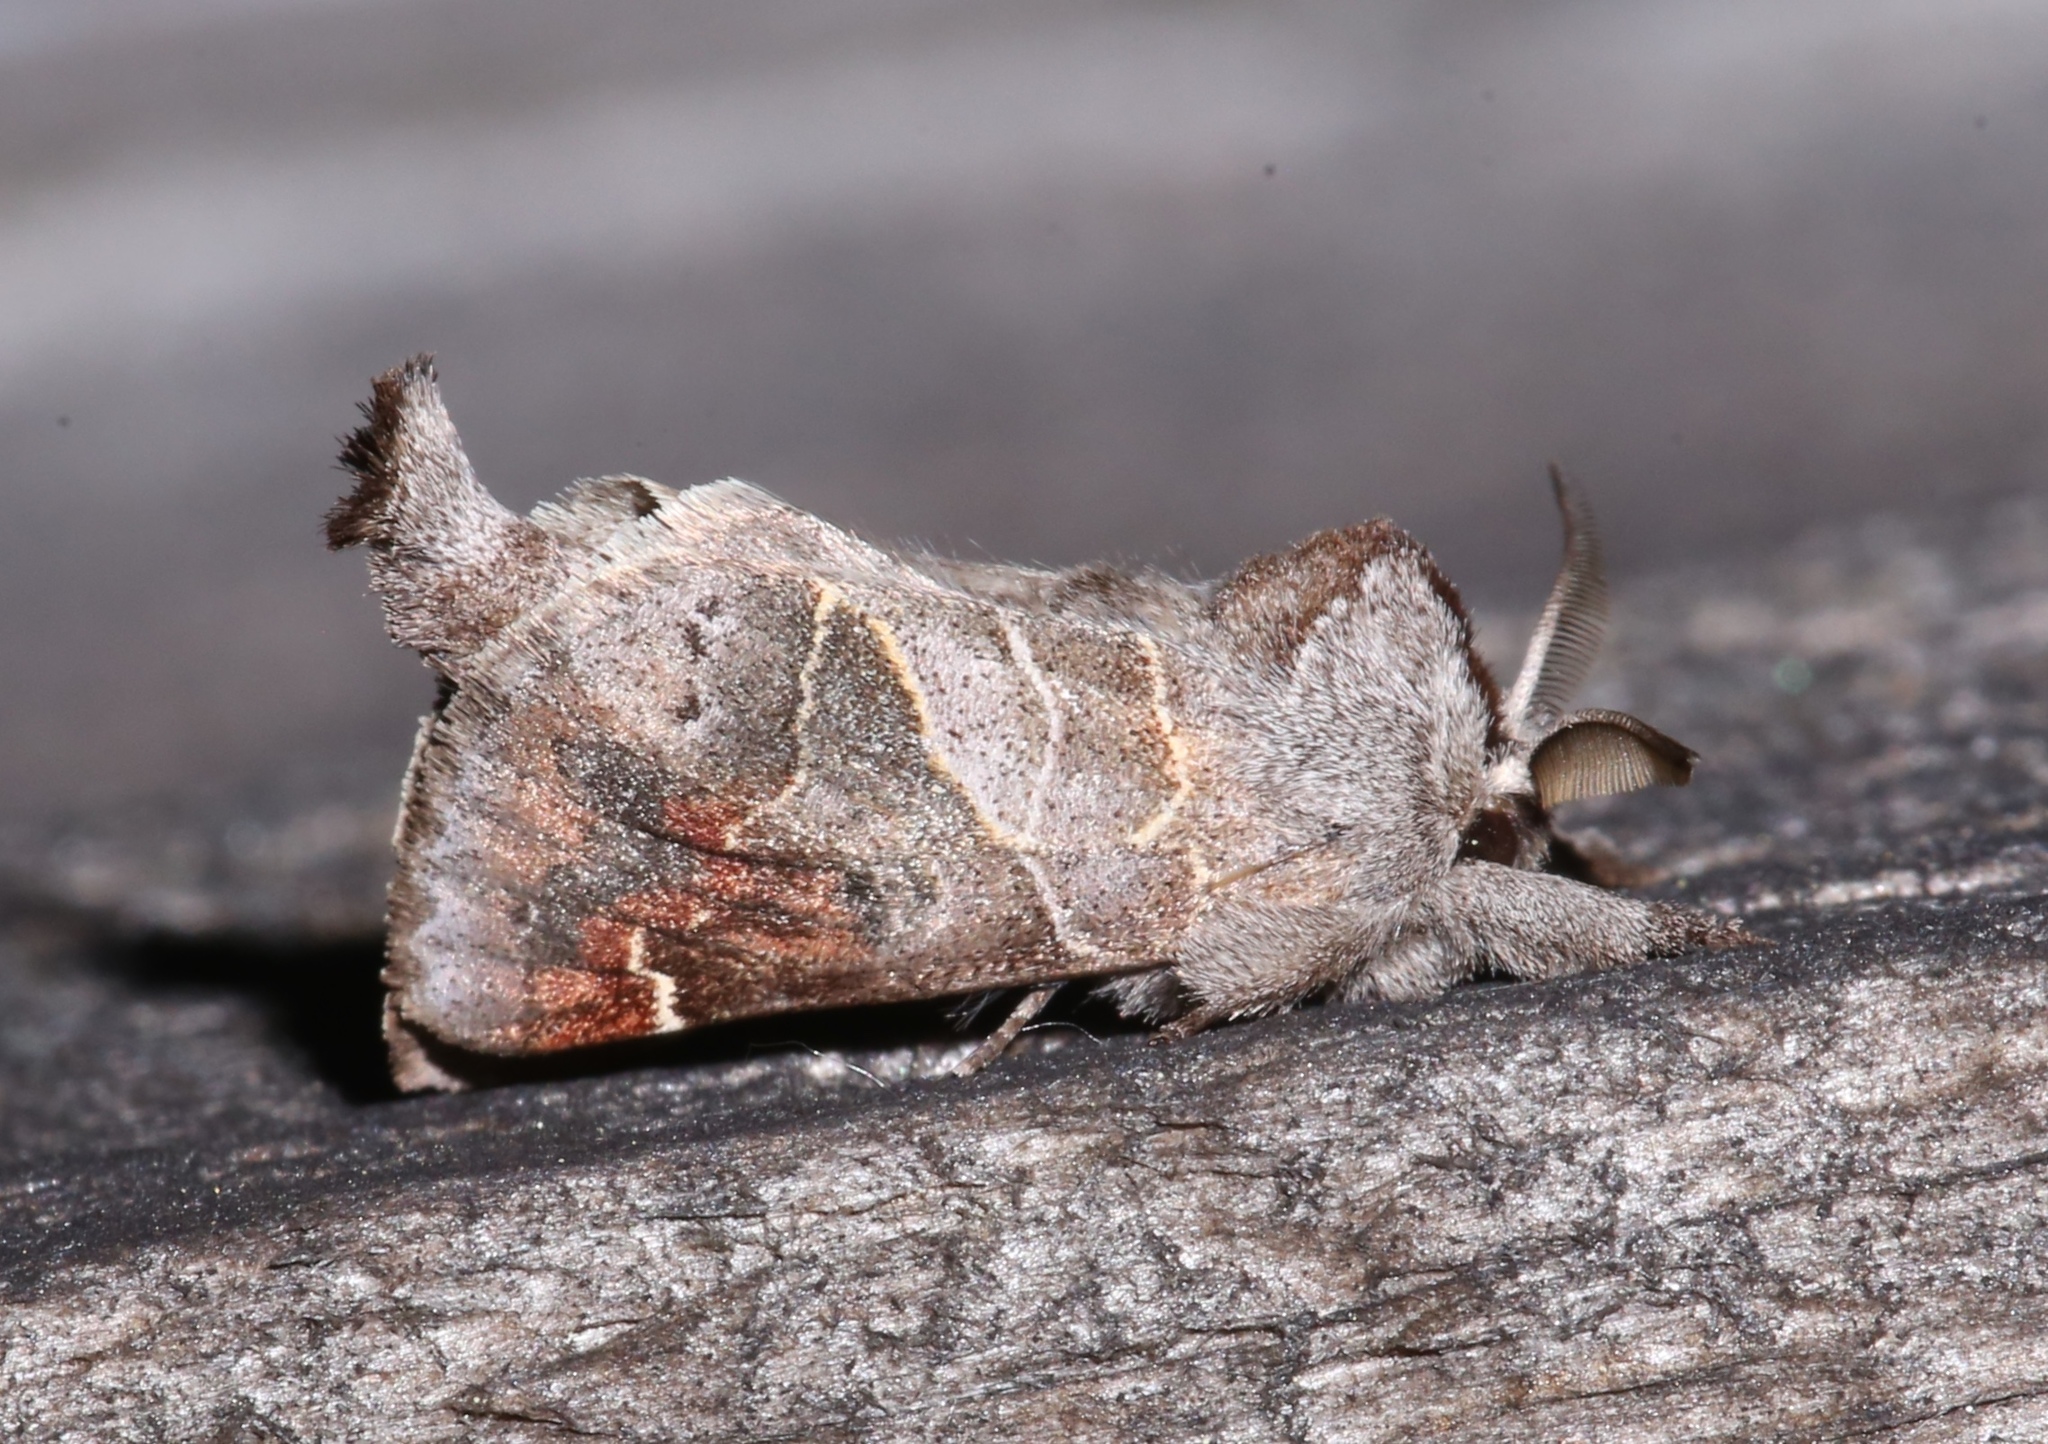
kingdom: Animalia
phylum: Arthropoda
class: Insecta
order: Lepidoptera
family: Notodontidae
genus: Clostera
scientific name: Clostera apicalis
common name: Apical prominent
